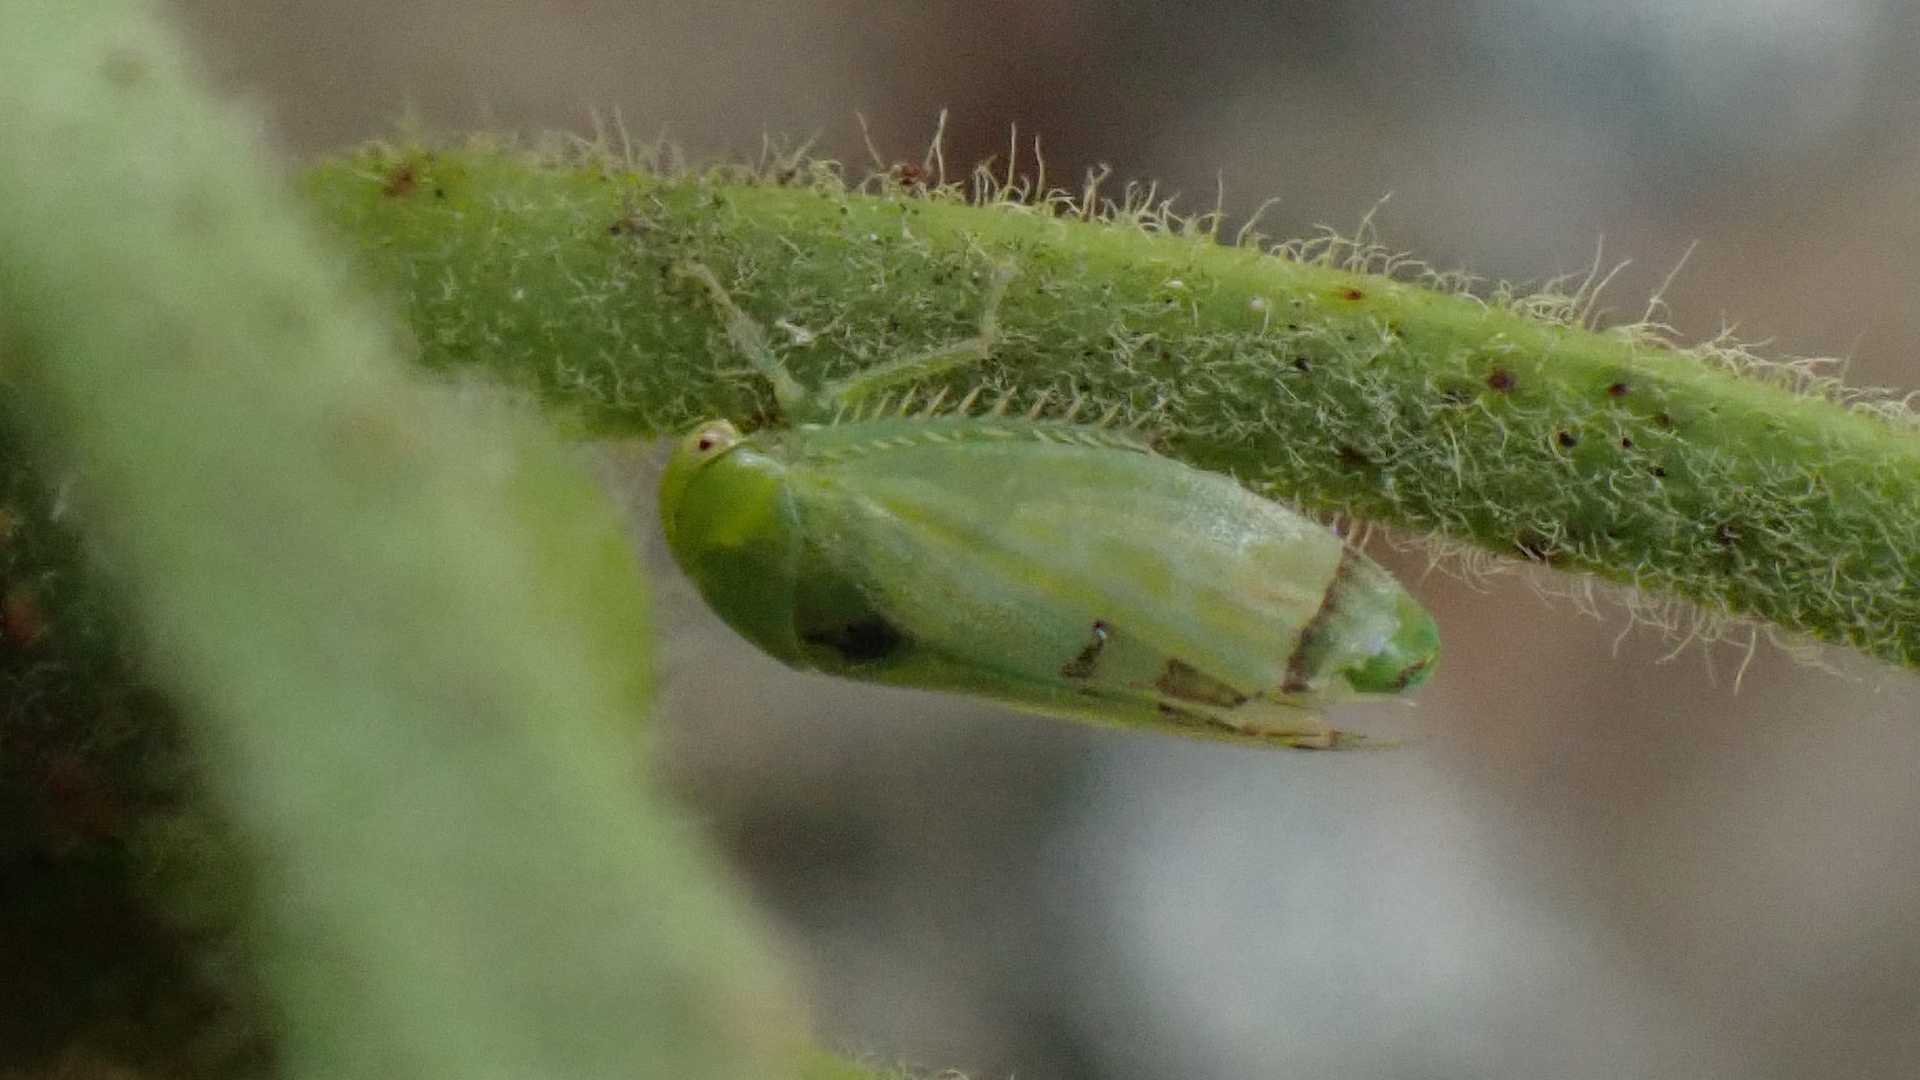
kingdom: Animalia
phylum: Arthropoda
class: Insecta
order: Hemiptera
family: Cicadellidae
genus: Stragania
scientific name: Stragania apicalis
